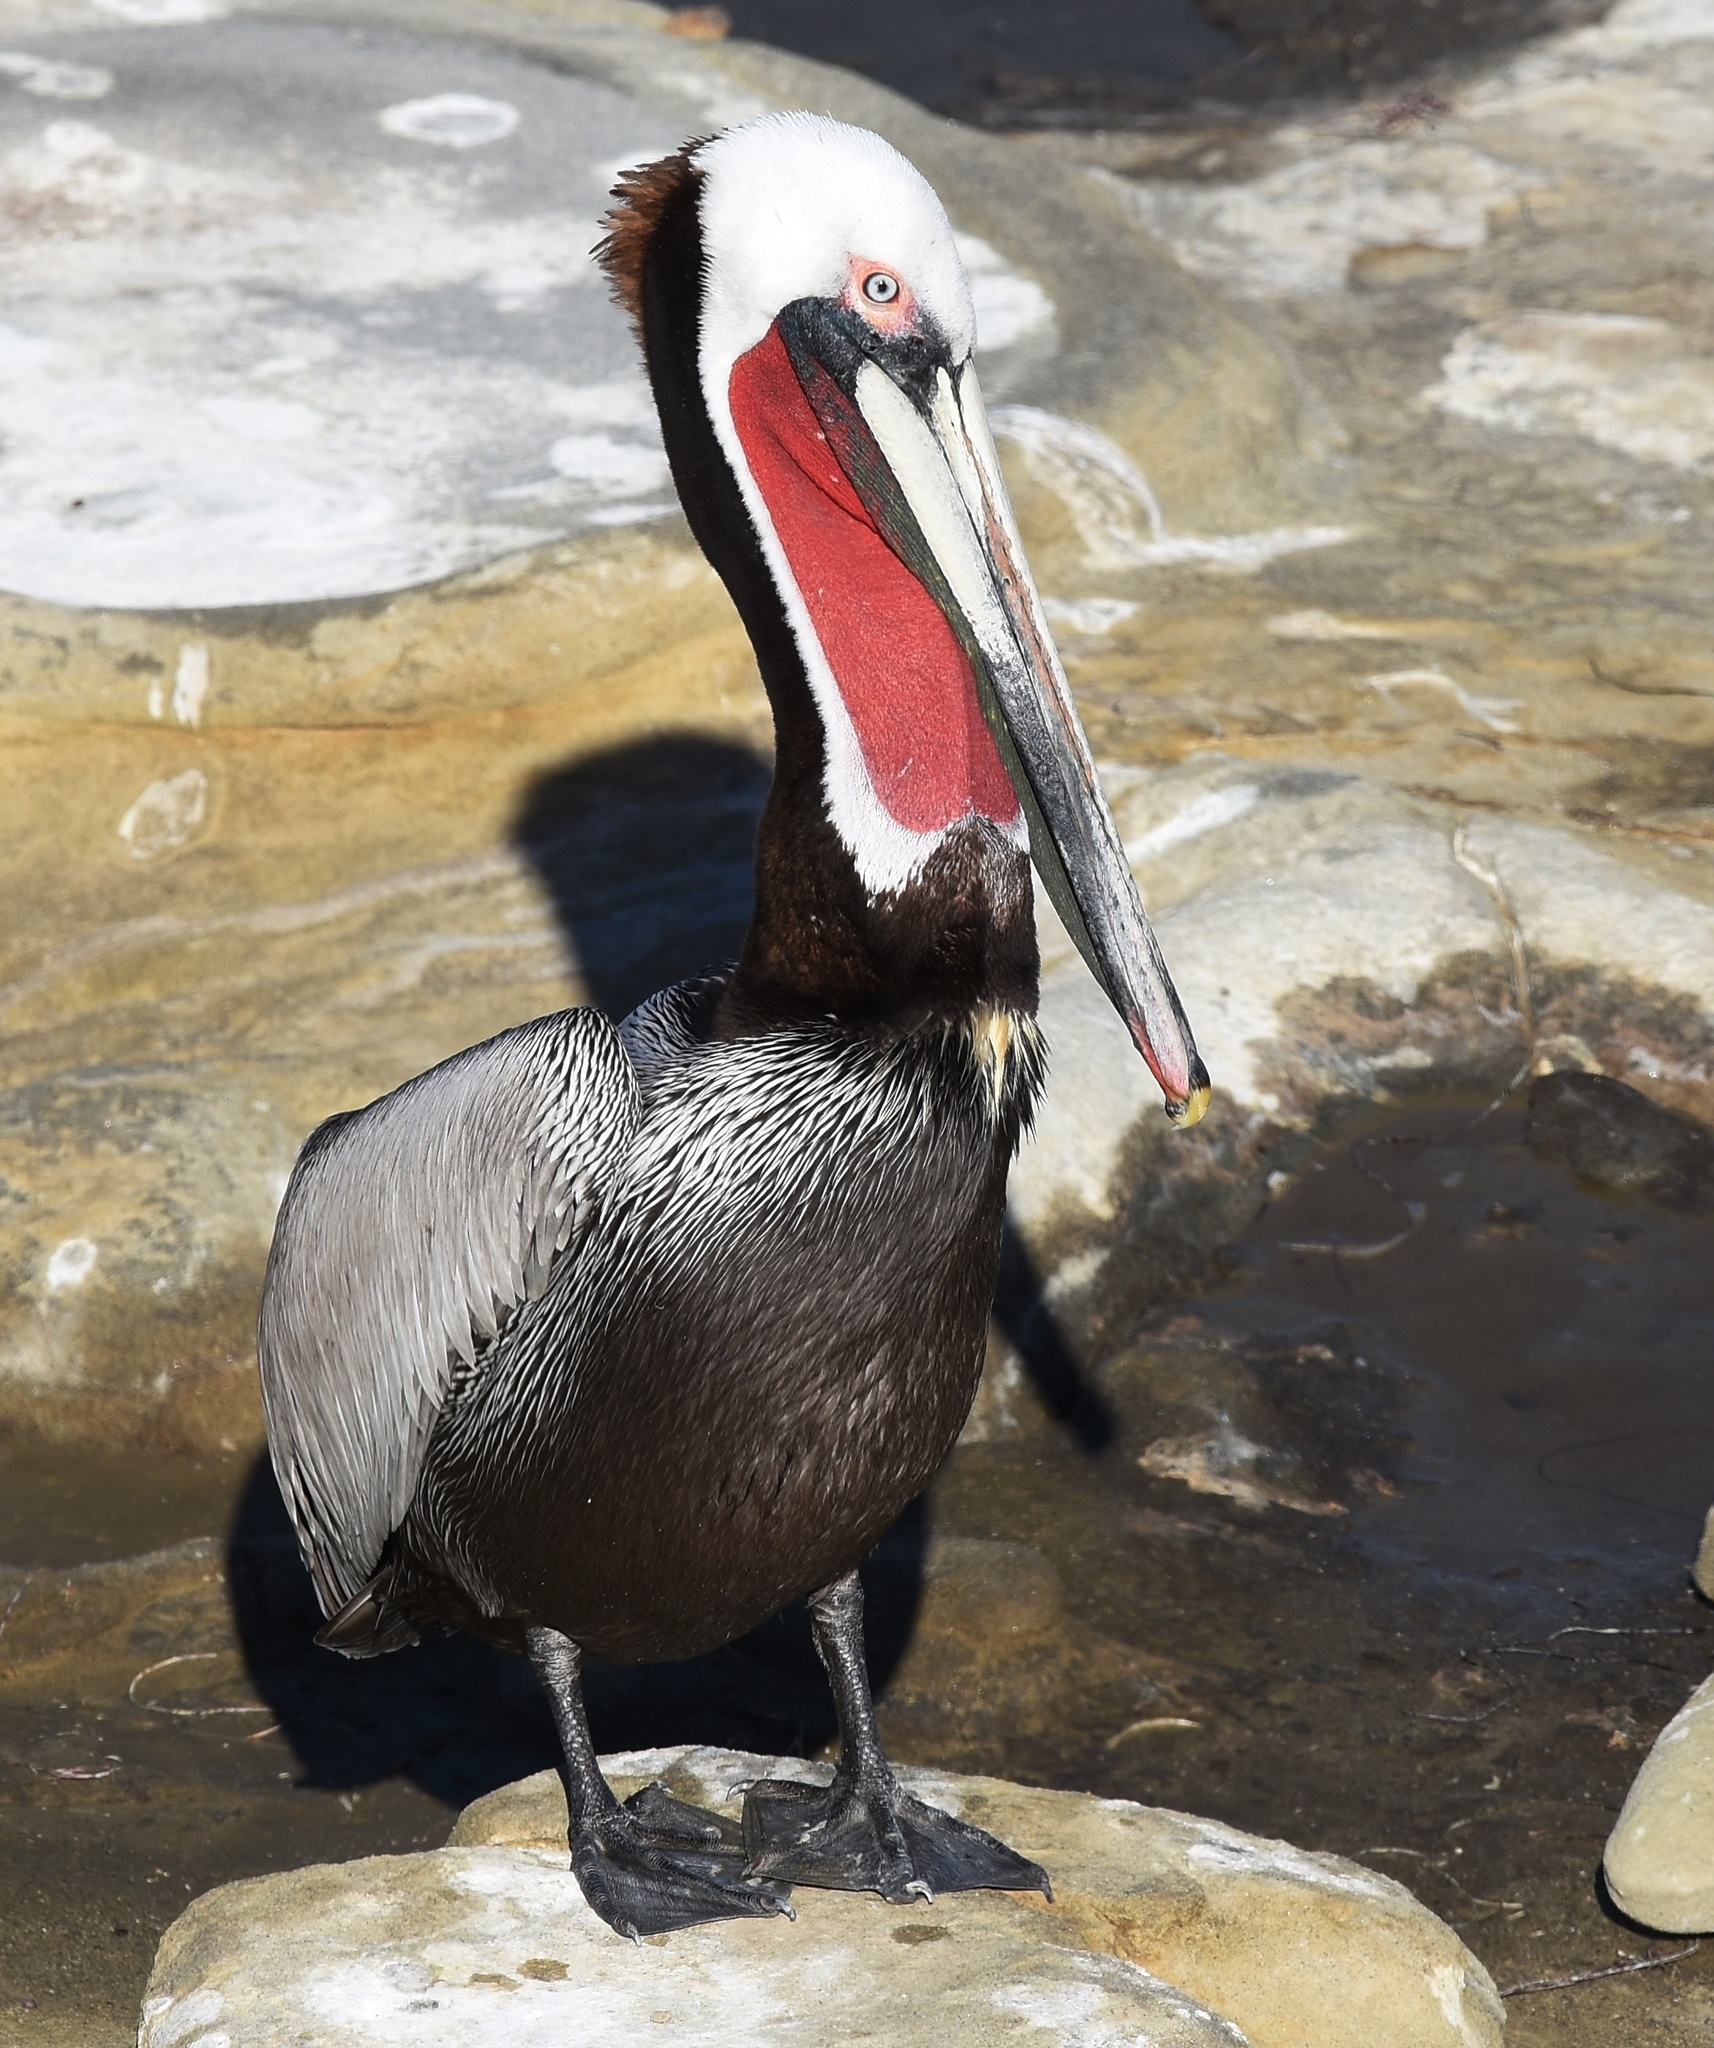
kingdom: Animalia
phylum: Chordata
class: Aves
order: Pelecaniformes
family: Pelecanidae
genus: Pelecanus
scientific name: Pelecanus occidentalis
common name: Brown pelican
